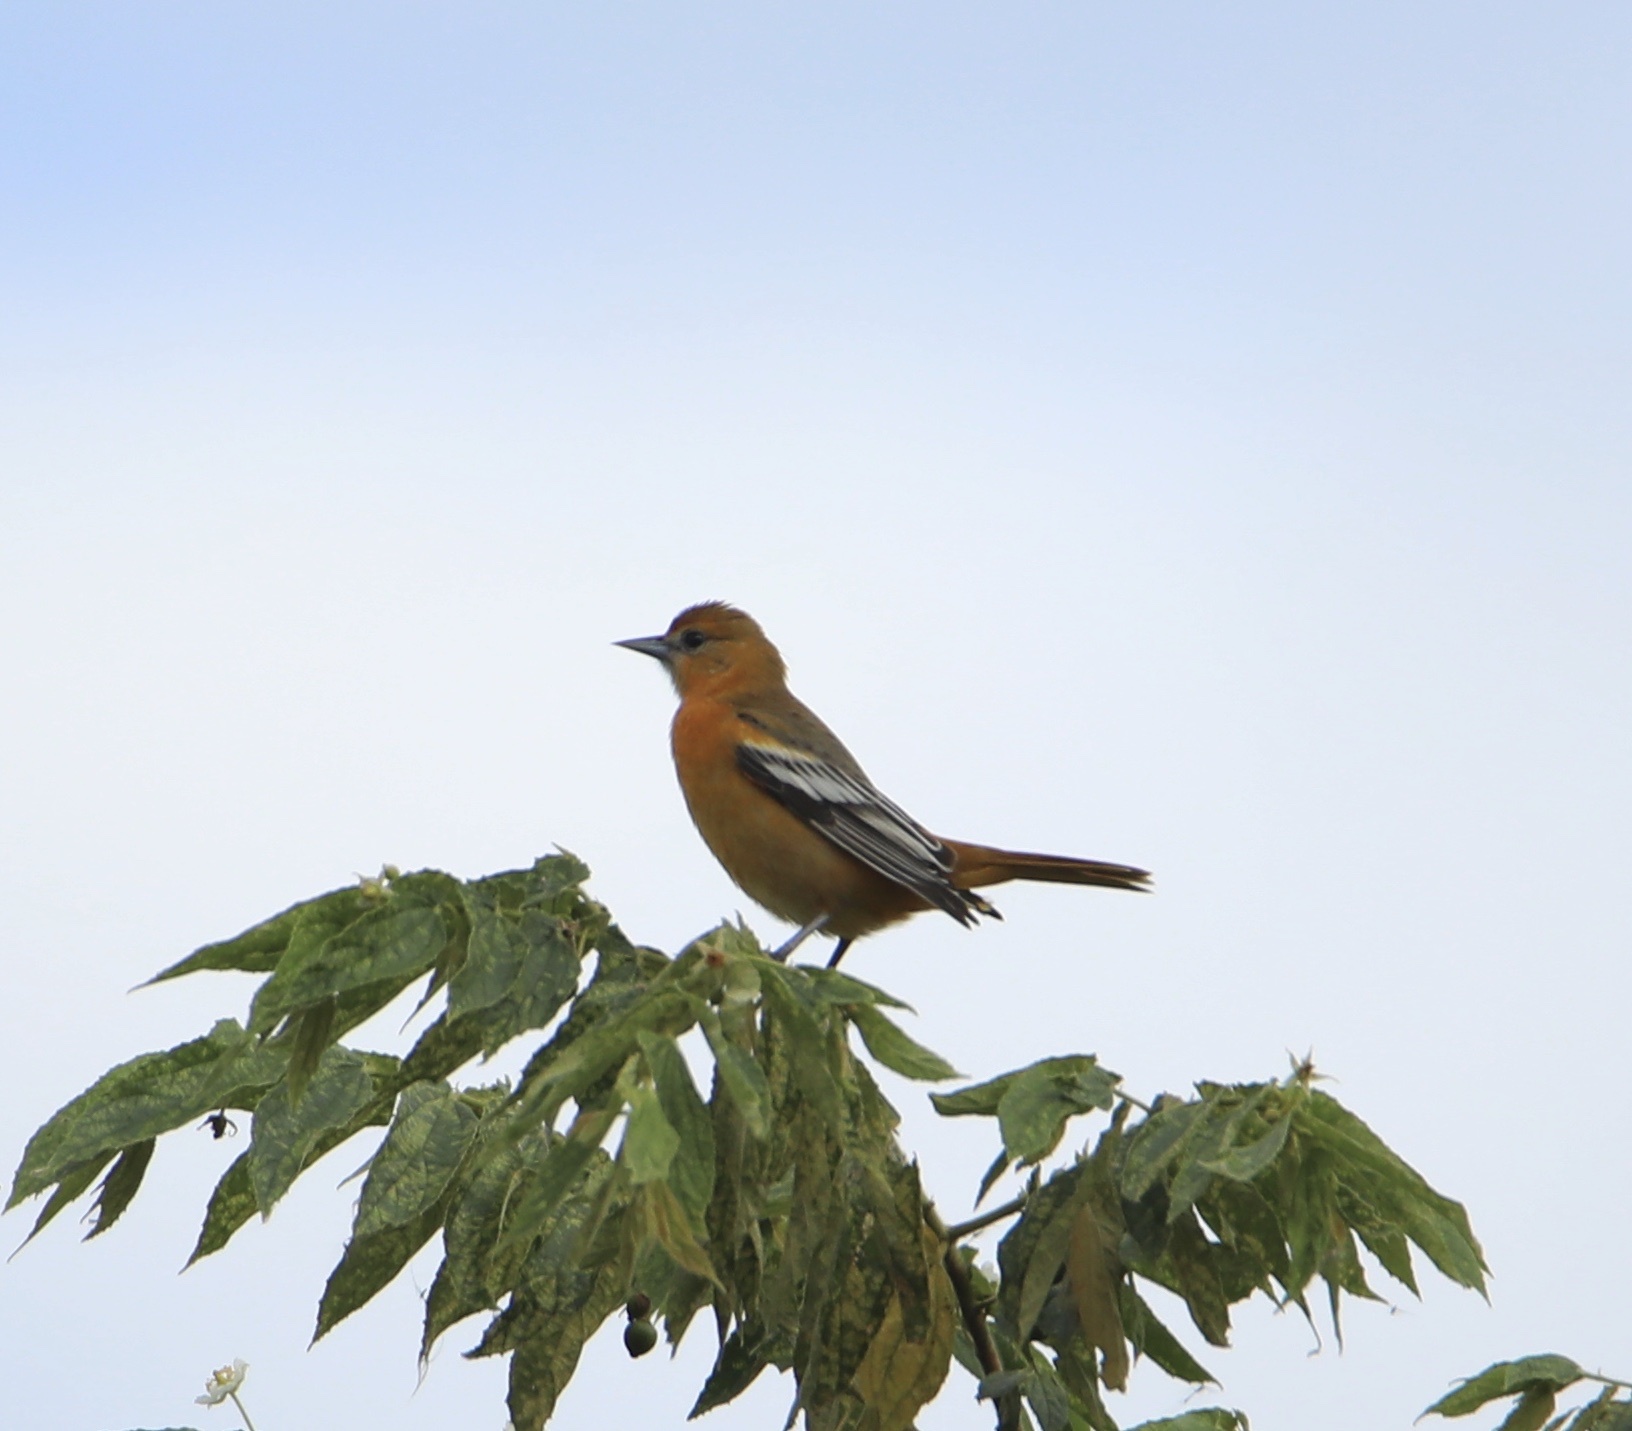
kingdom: Animalia
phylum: Chordata
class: Aves
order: Passeriformes
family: Icteridae
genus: Icterus
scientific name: Icterus galbula
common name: Baltimore oriole
